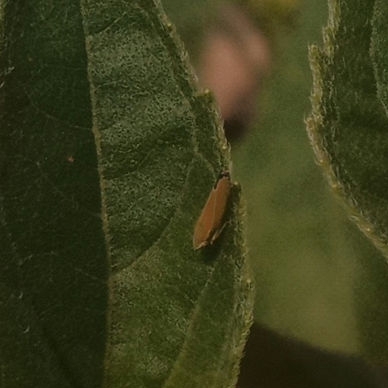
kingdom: Animalia
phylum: Arthropoda
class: Insecta
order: Hemiptera
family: Cicadellidae
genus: Graphocephala
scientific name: Graphocephala versuta
